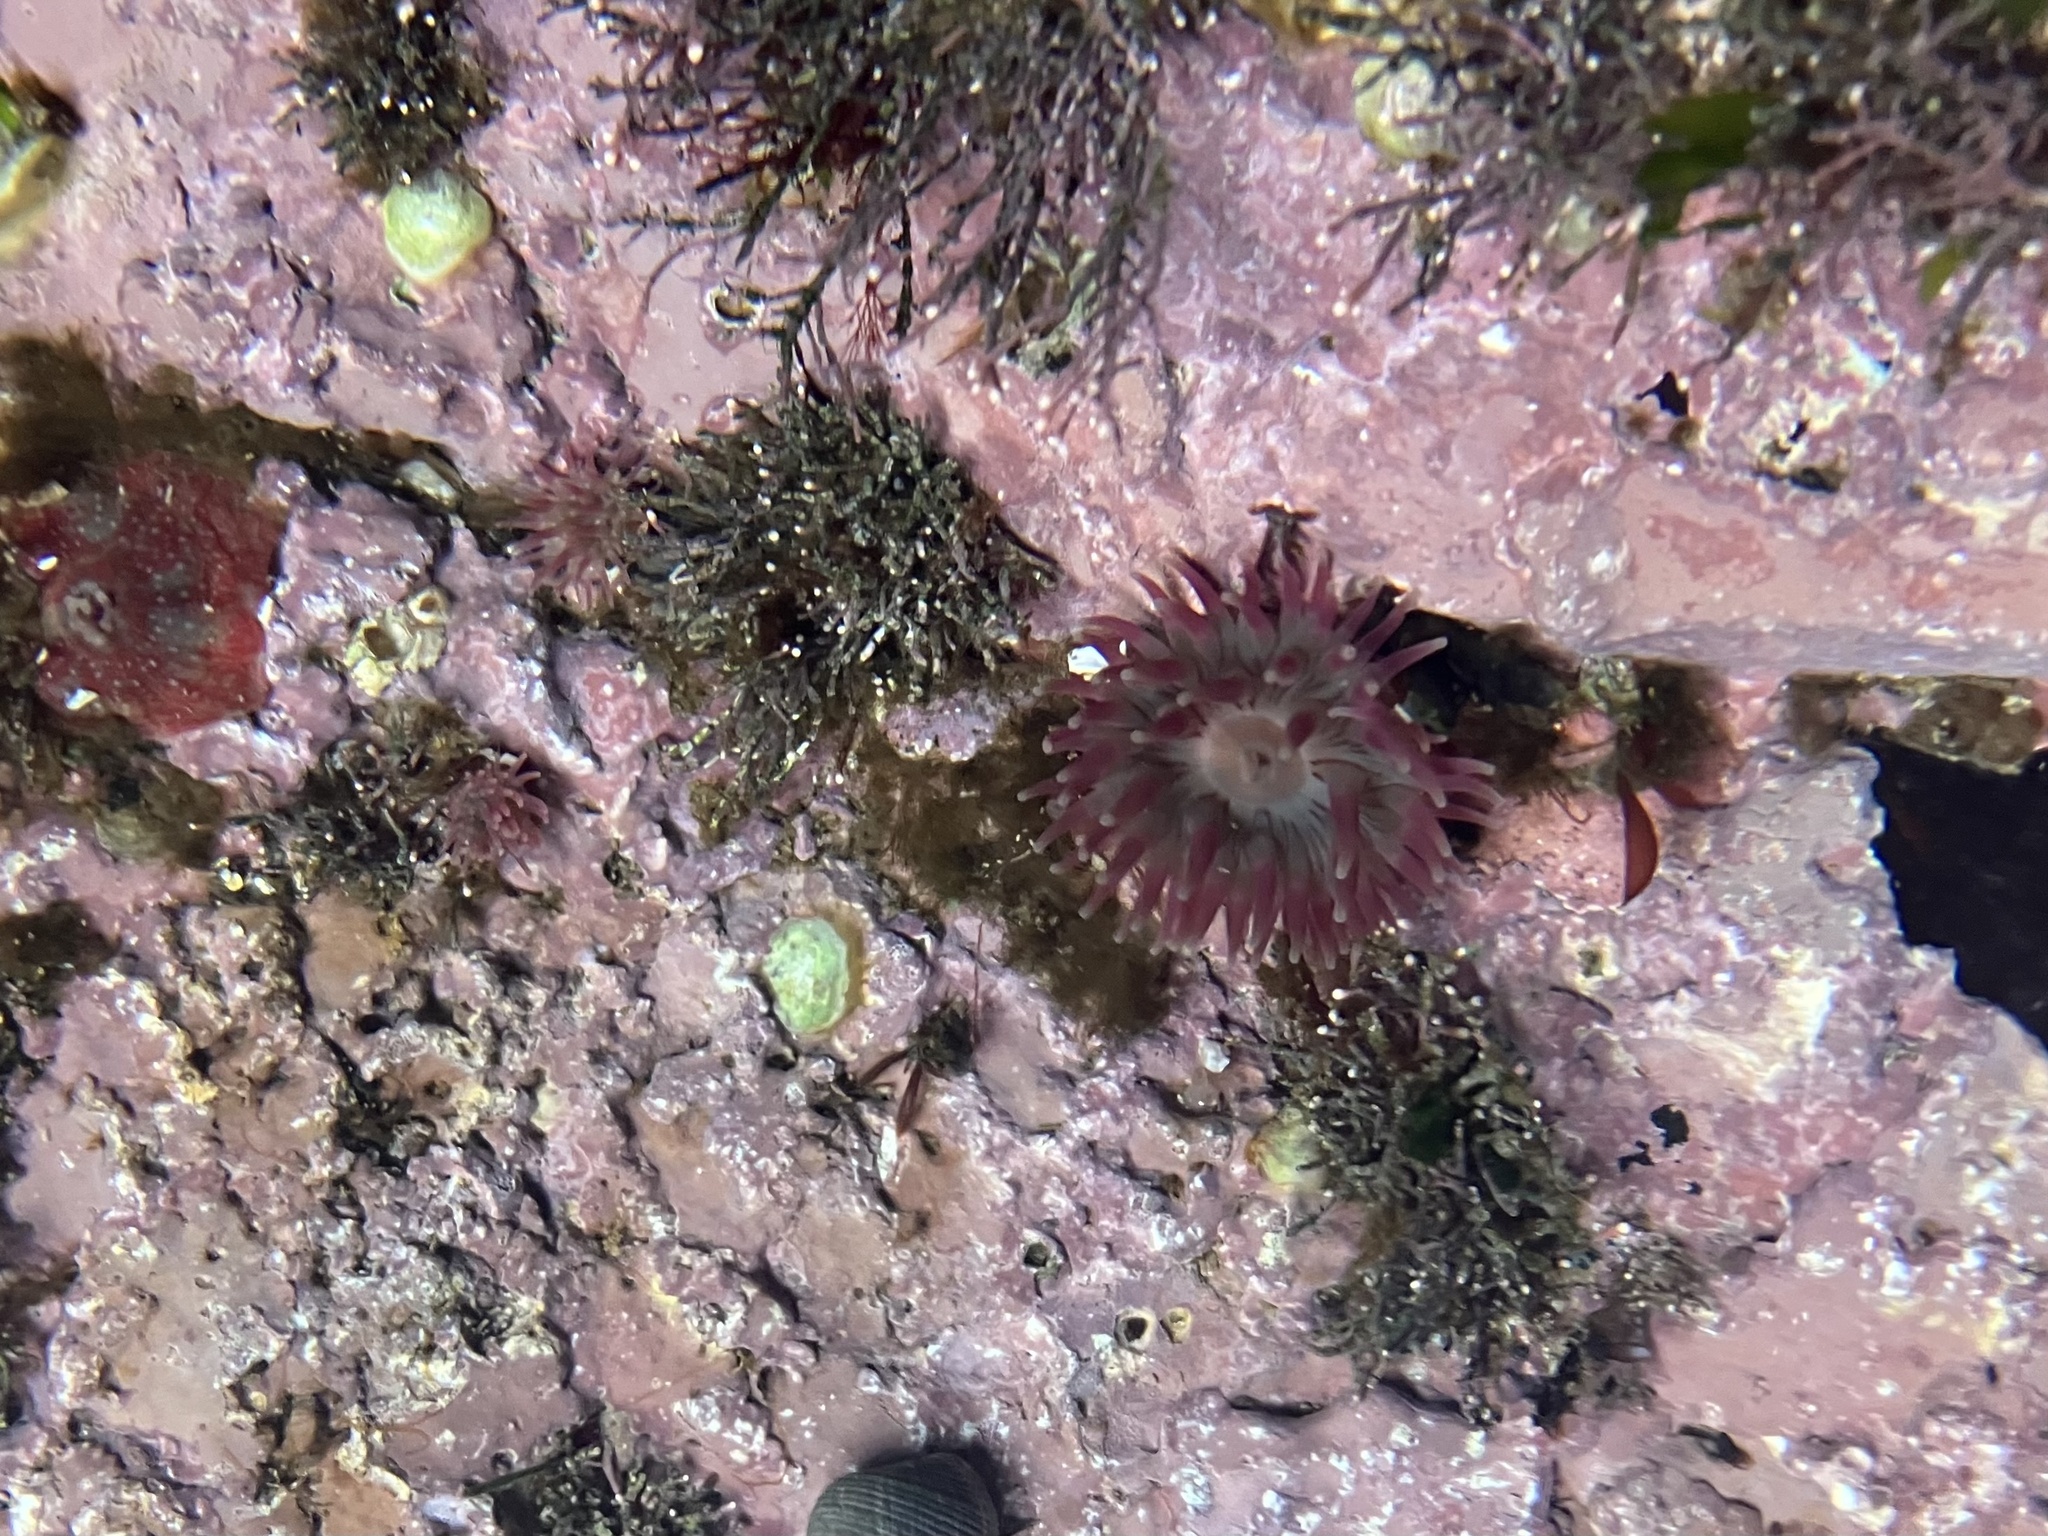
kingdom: Animalia
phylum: Cnidaria
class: Anthozoa
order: Actiniaria
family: Actiniidae
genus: Urticina
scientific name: Urticina crassicornis
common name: Mottled anemone
